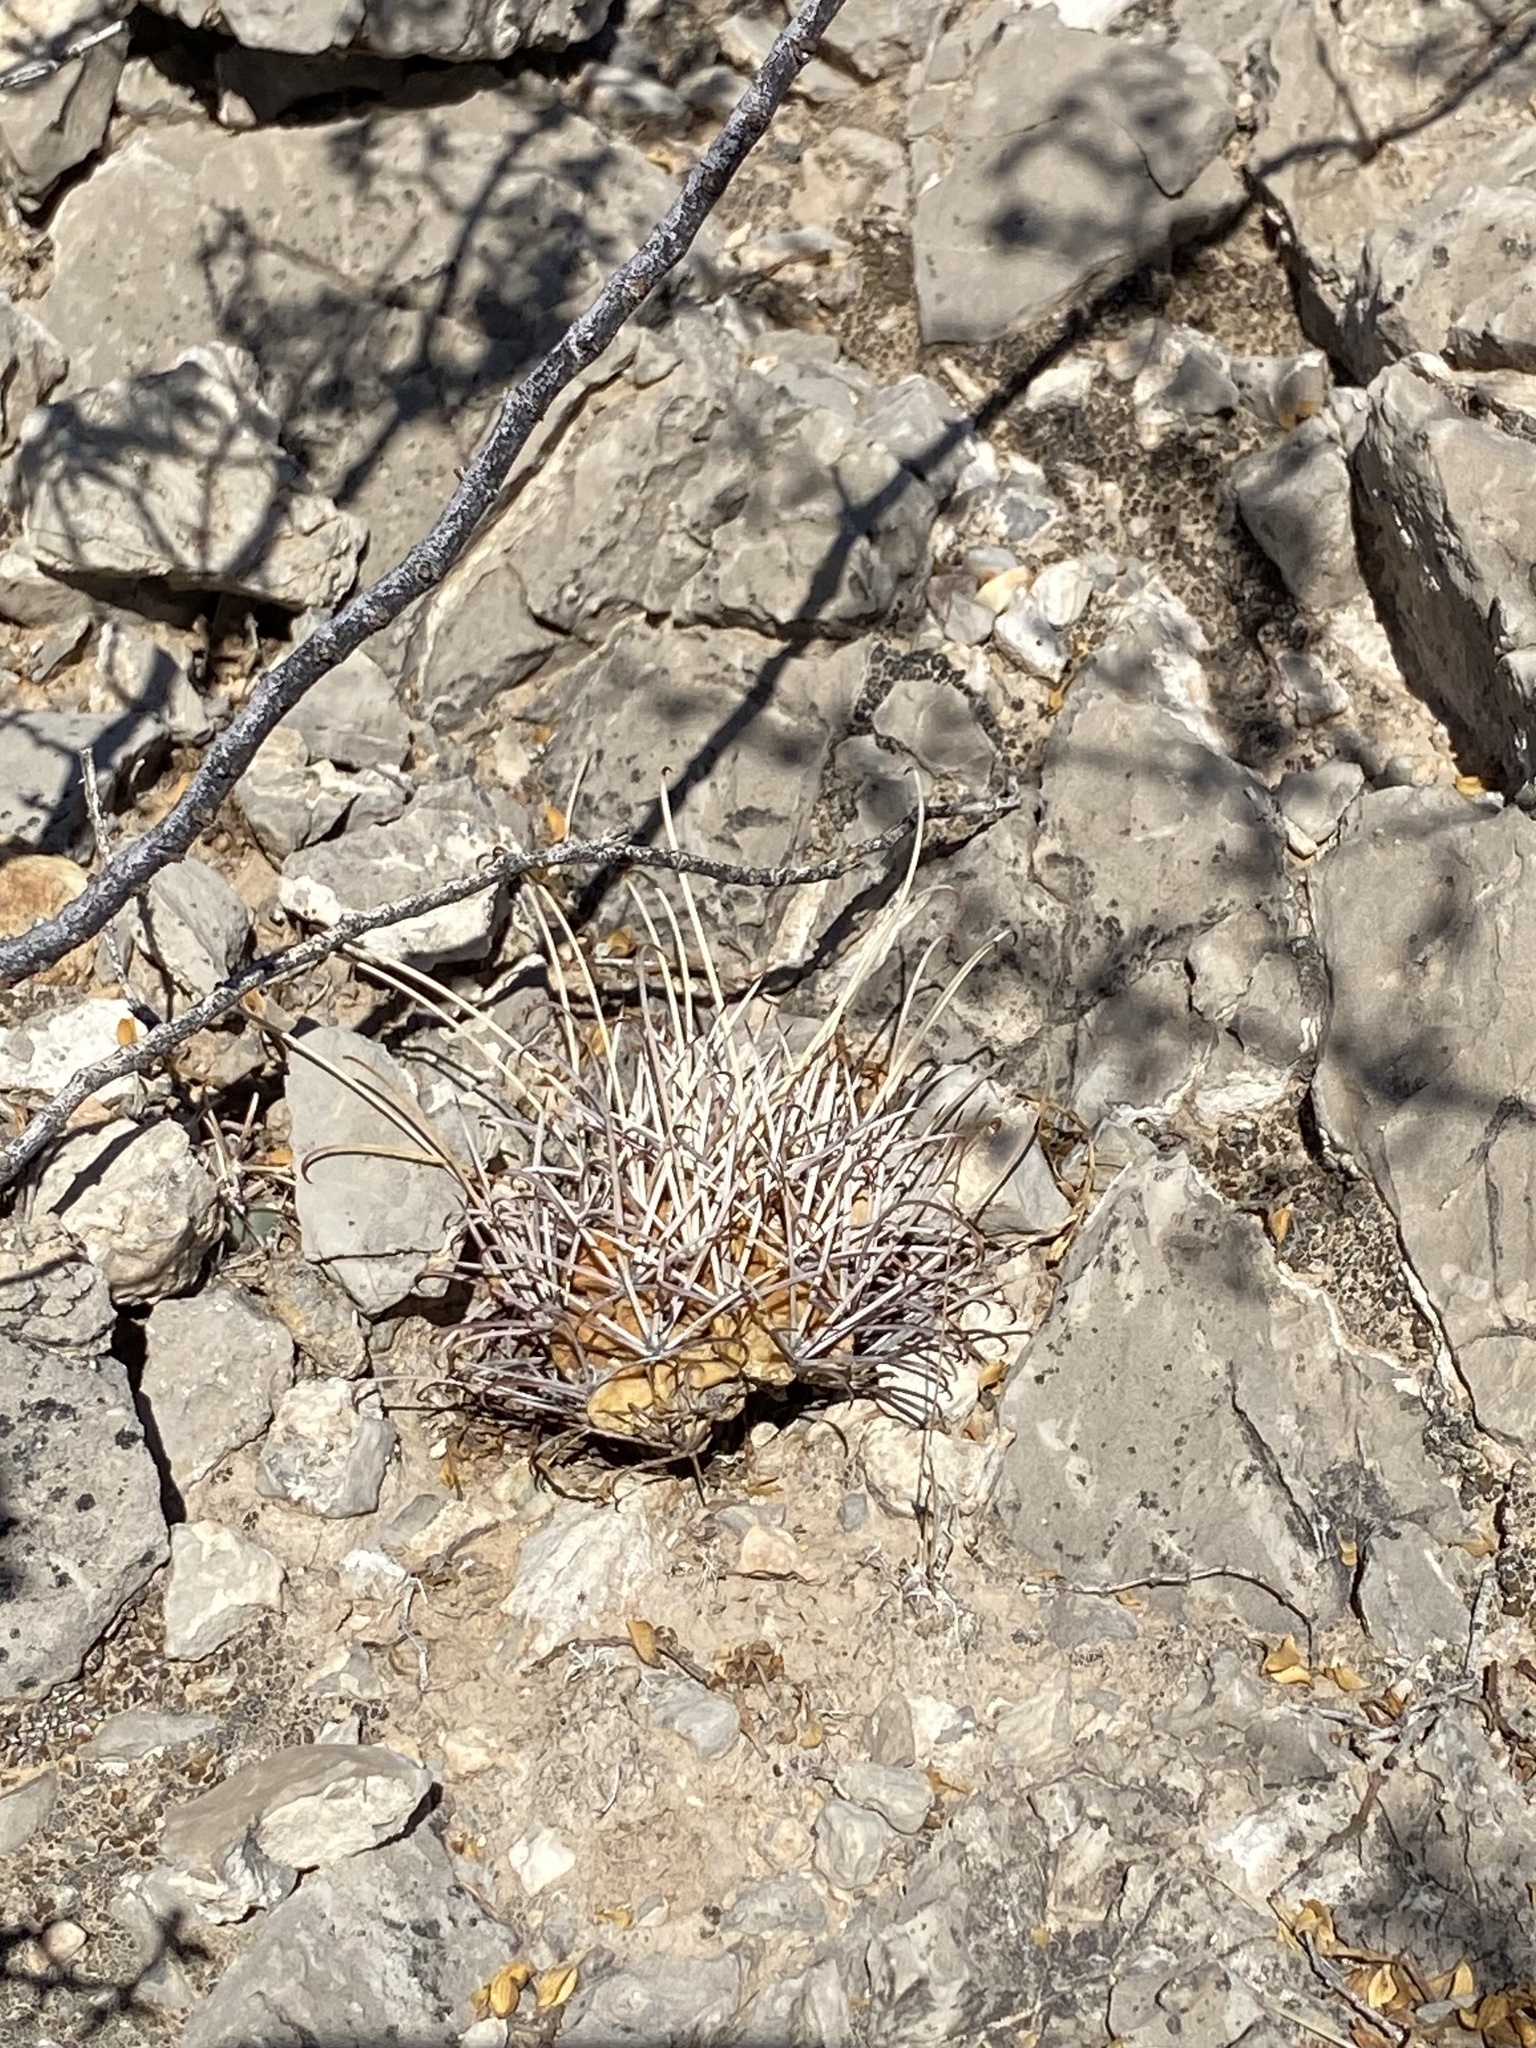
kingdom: Plantae
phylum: Tracheophyta
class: Magnoliopsida
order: Caryophyllales
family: Cactaceae
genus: Ferocactus
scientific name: Ferocactus uncinatus
